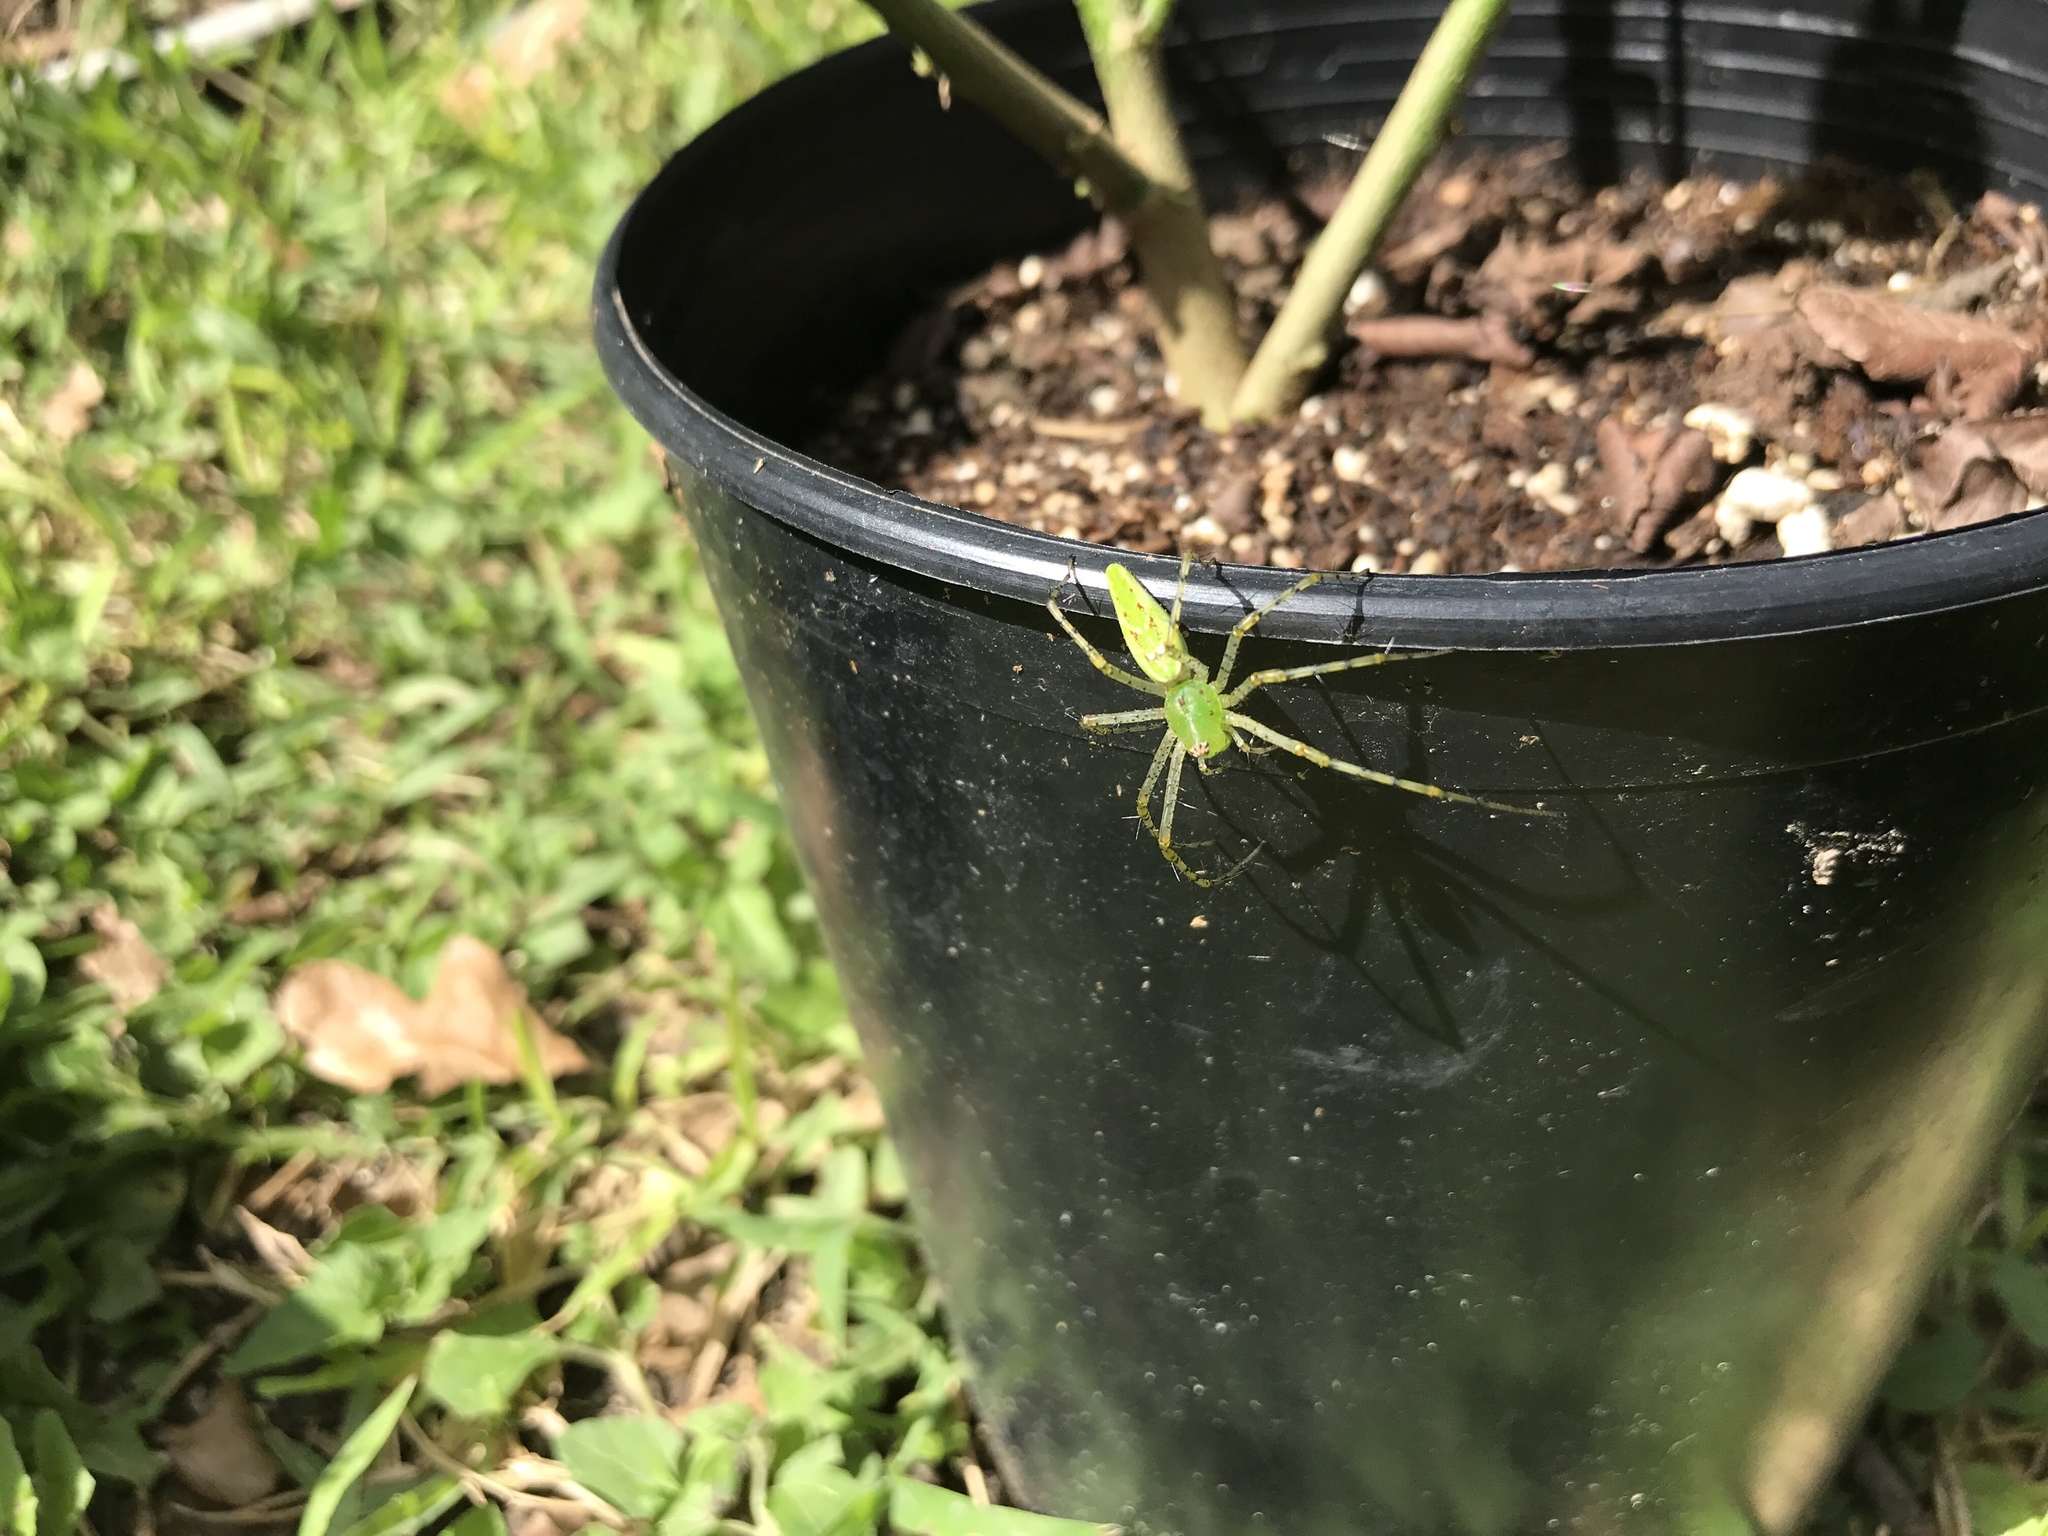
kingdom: Animalia
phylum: Arthropoda
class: Arachnida
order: Araneae
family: Oxyopidae
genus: Peucetia
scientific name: Peucetia viridans
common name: Lynx spiders
